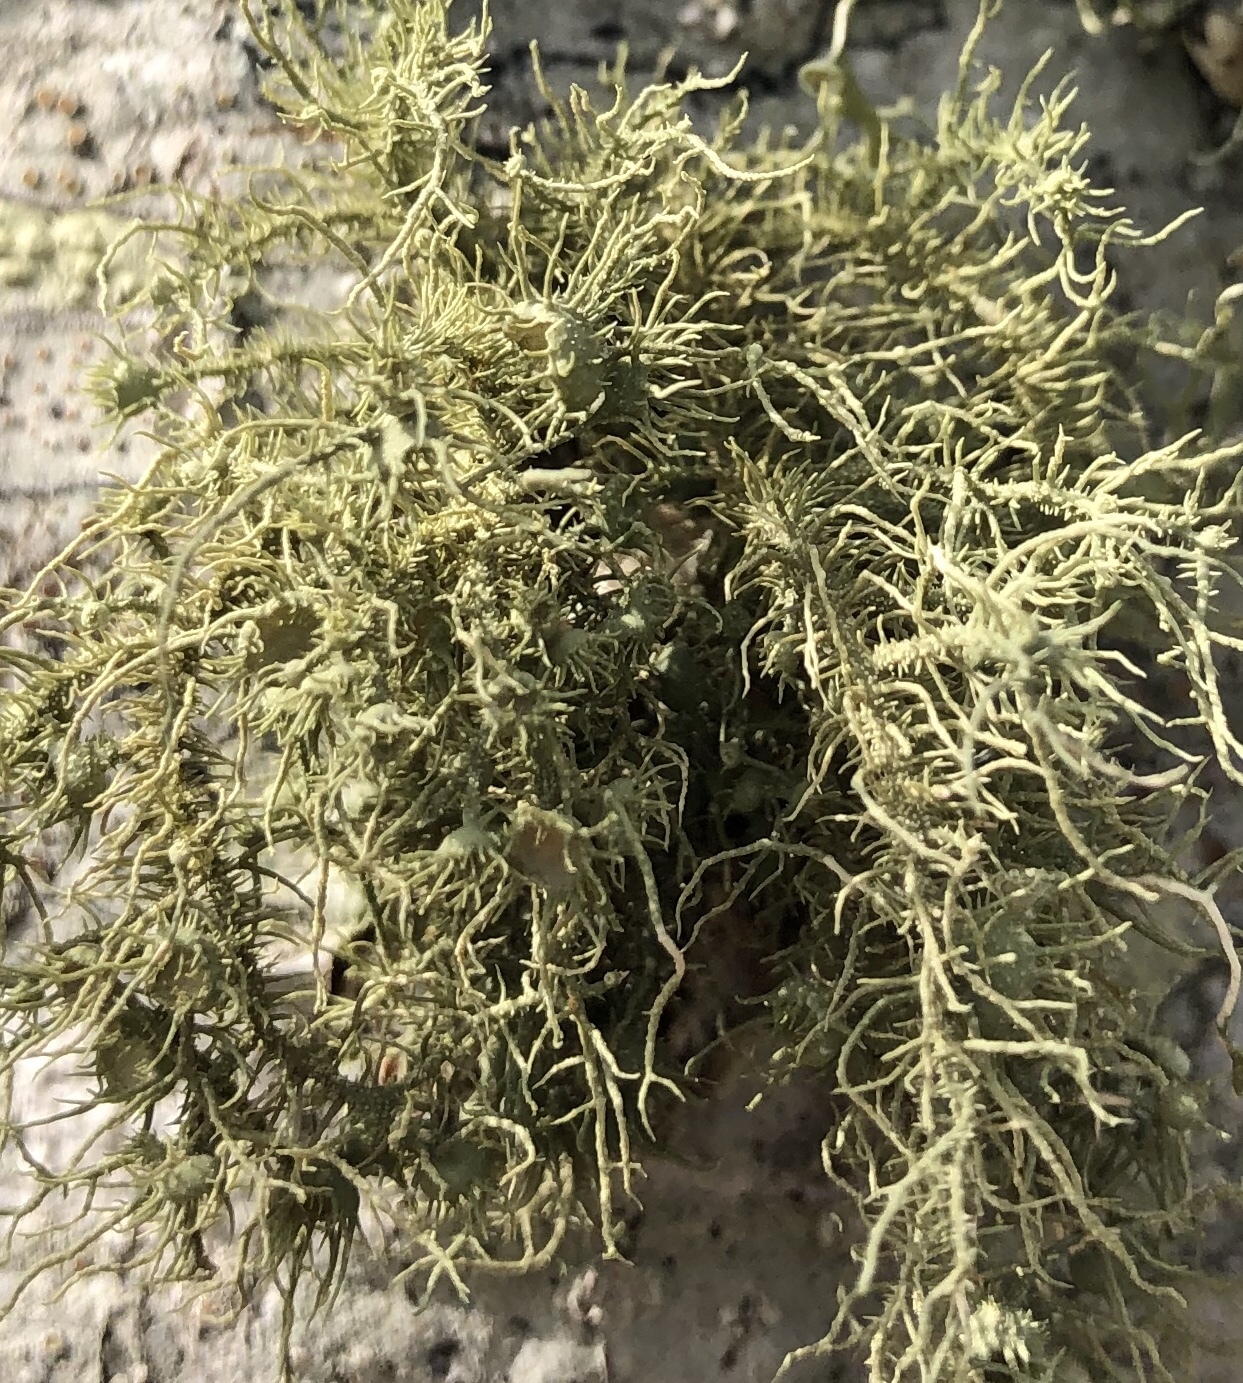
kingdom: Fungi
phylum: Ascomycota
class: Lecanoromycetes
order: Lecanorales
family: Parmeliaceae
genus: Usnea
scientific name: Usnea strigosa
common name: Bushy beard lichen
